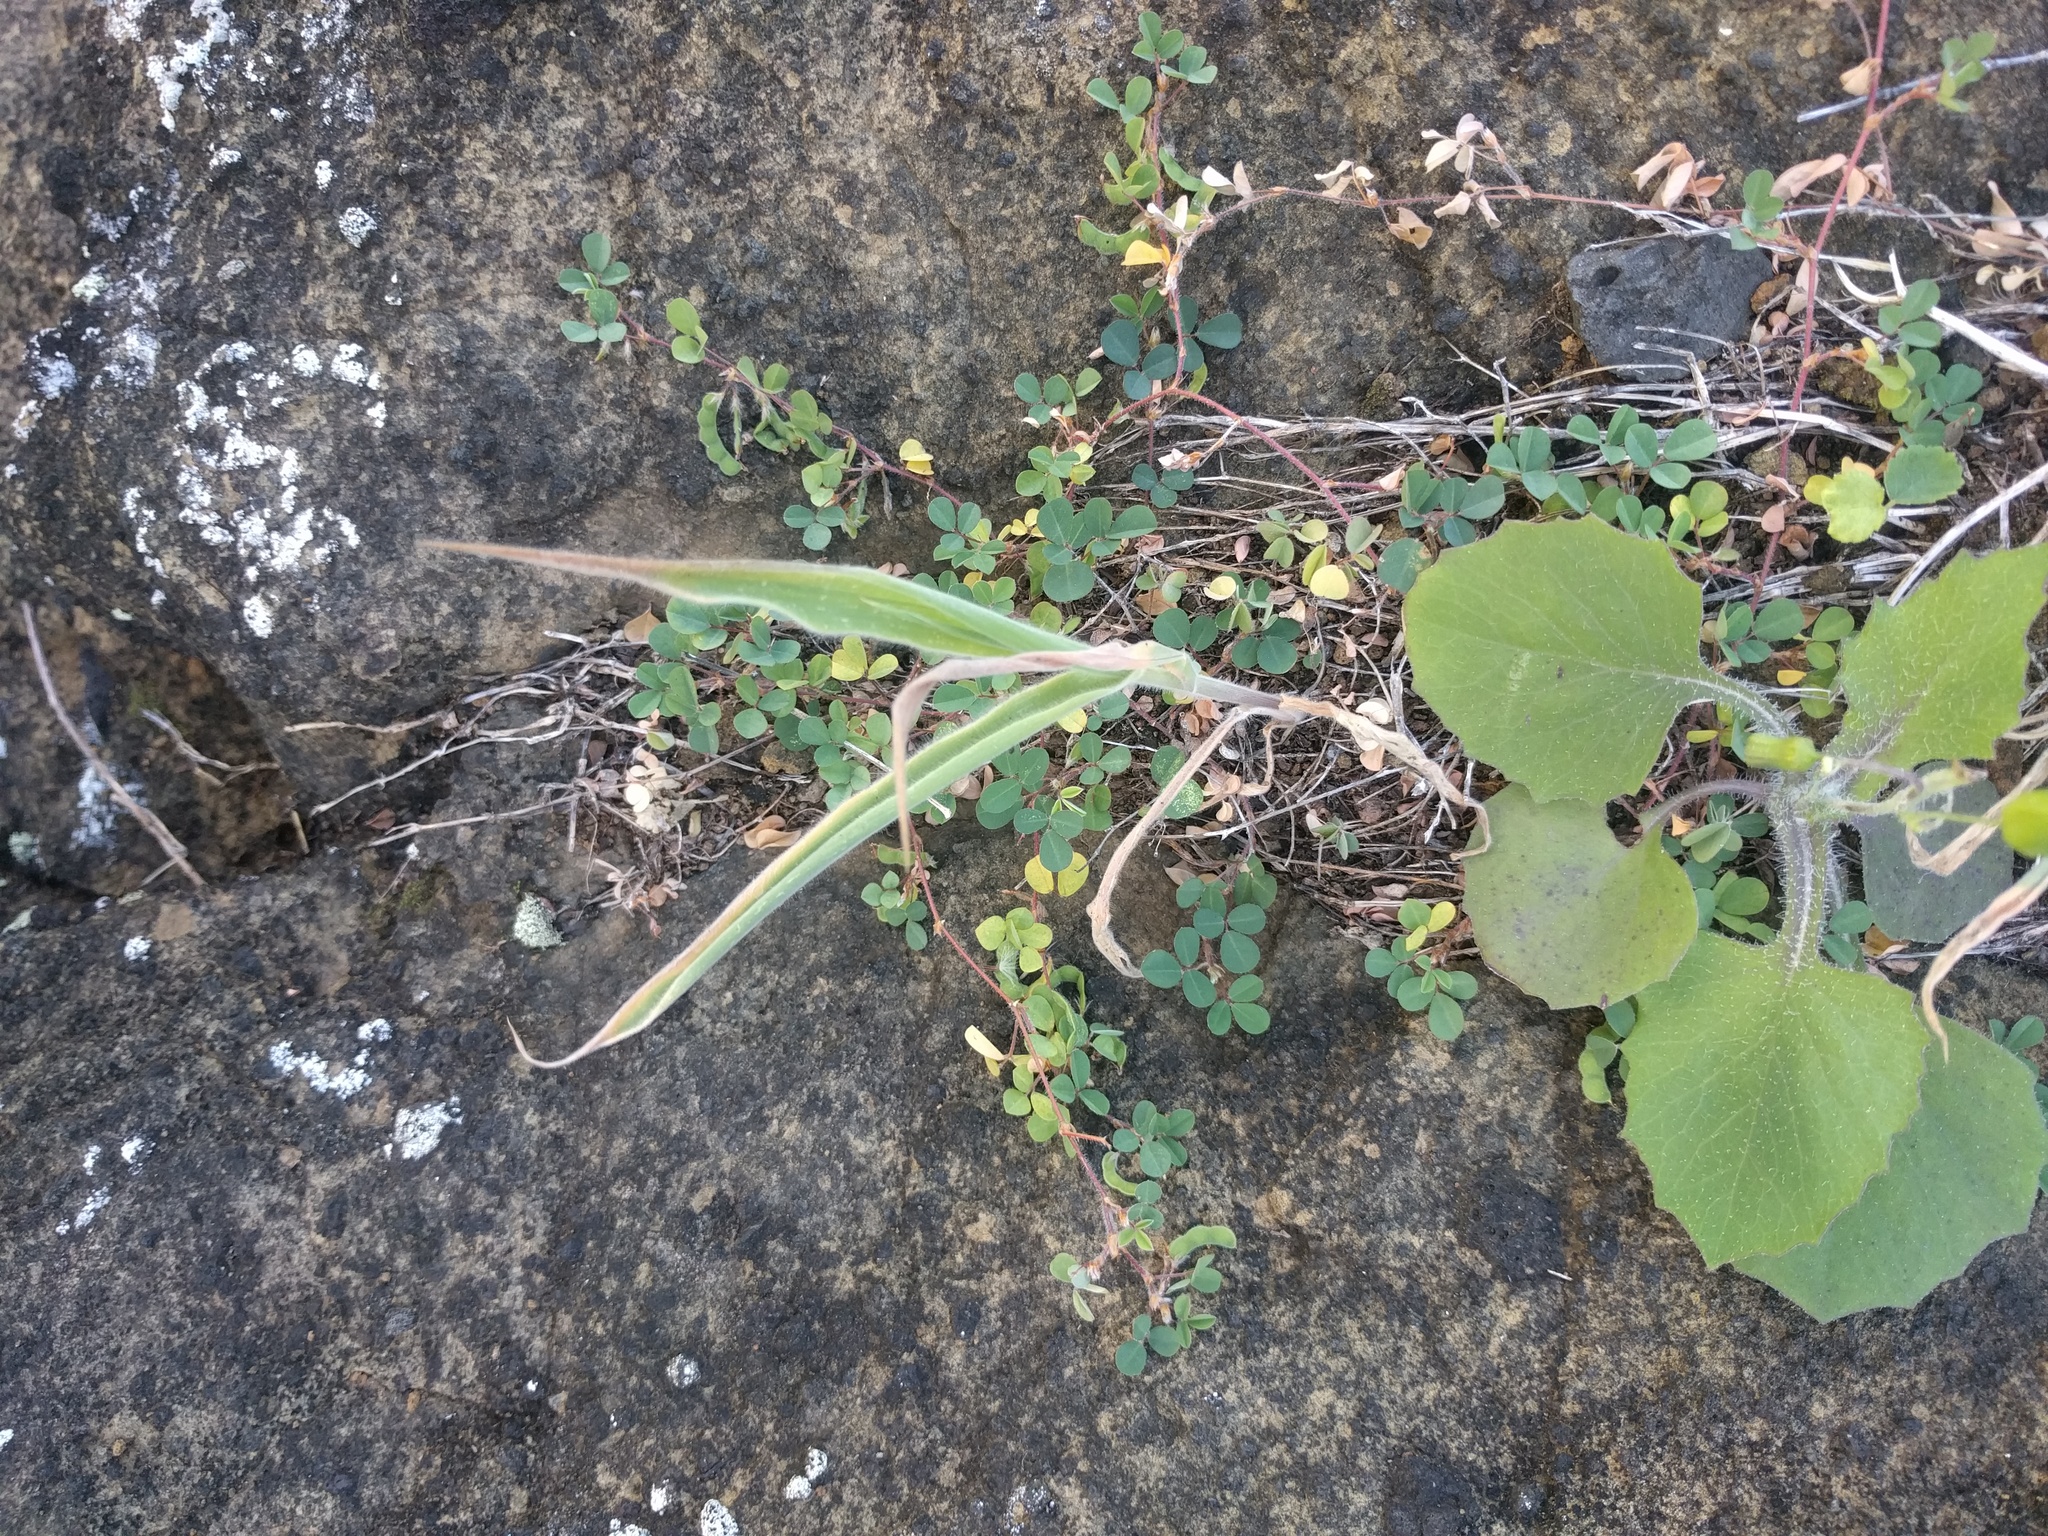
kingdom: Plantae
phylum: Tracheophyta
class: Liliopsida
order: Poales
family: Poaceae
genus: Panicum
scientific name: Panicum torridum
